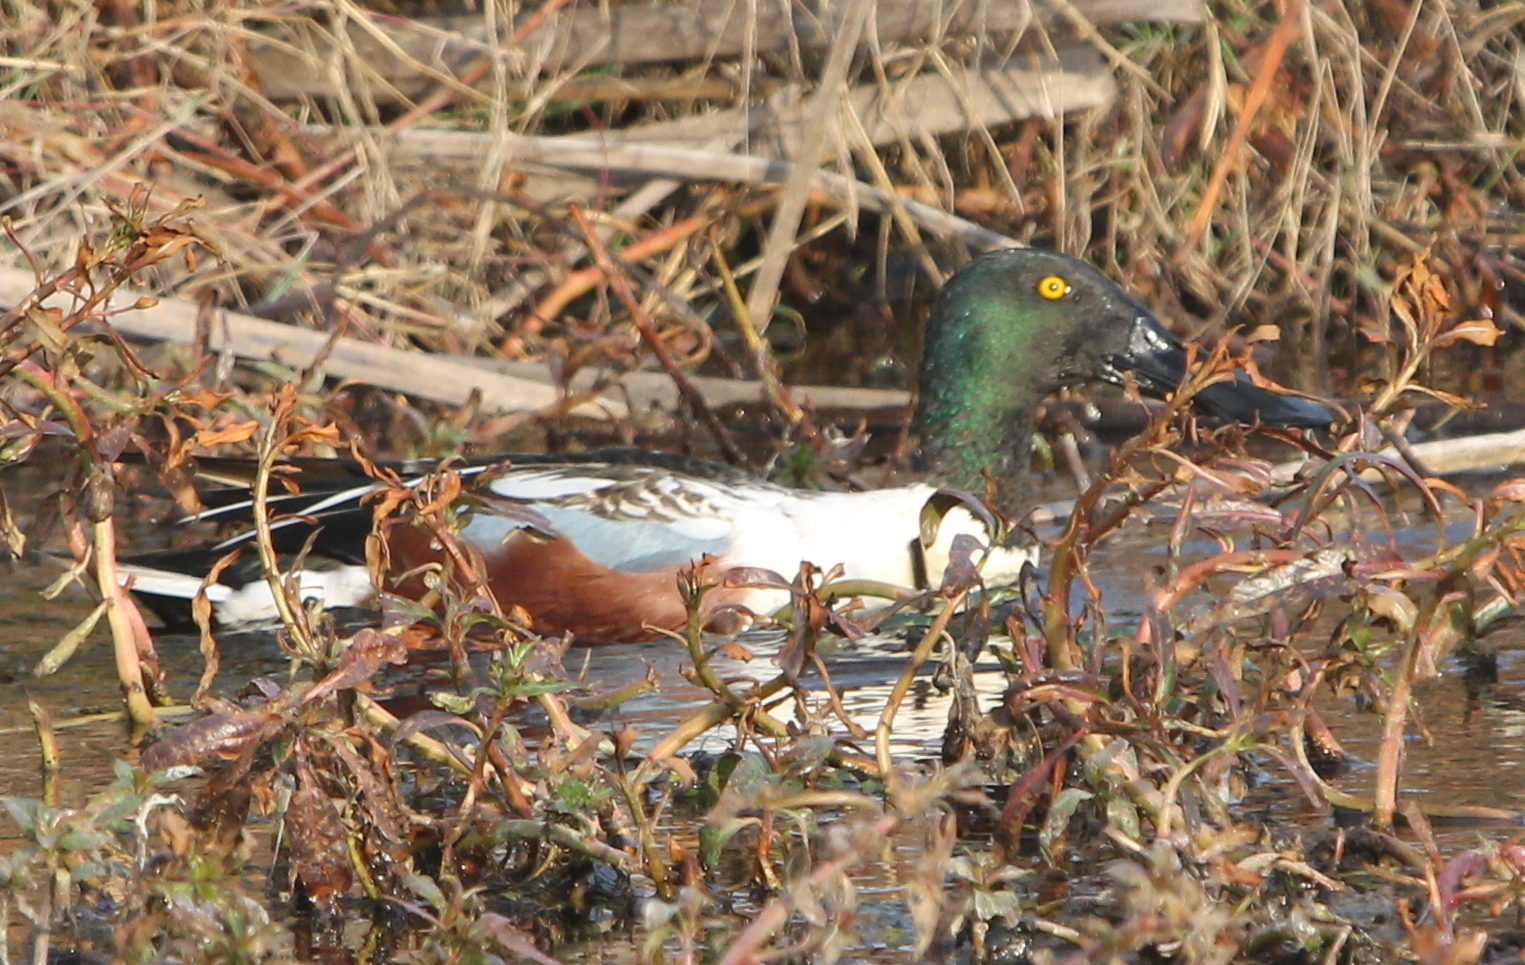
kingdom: Animalia
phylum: Chordata
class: Aves
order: Anseriformes
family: Anatidae
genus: Spatula
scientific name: Spatula clypeata
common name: Northern shoveler
